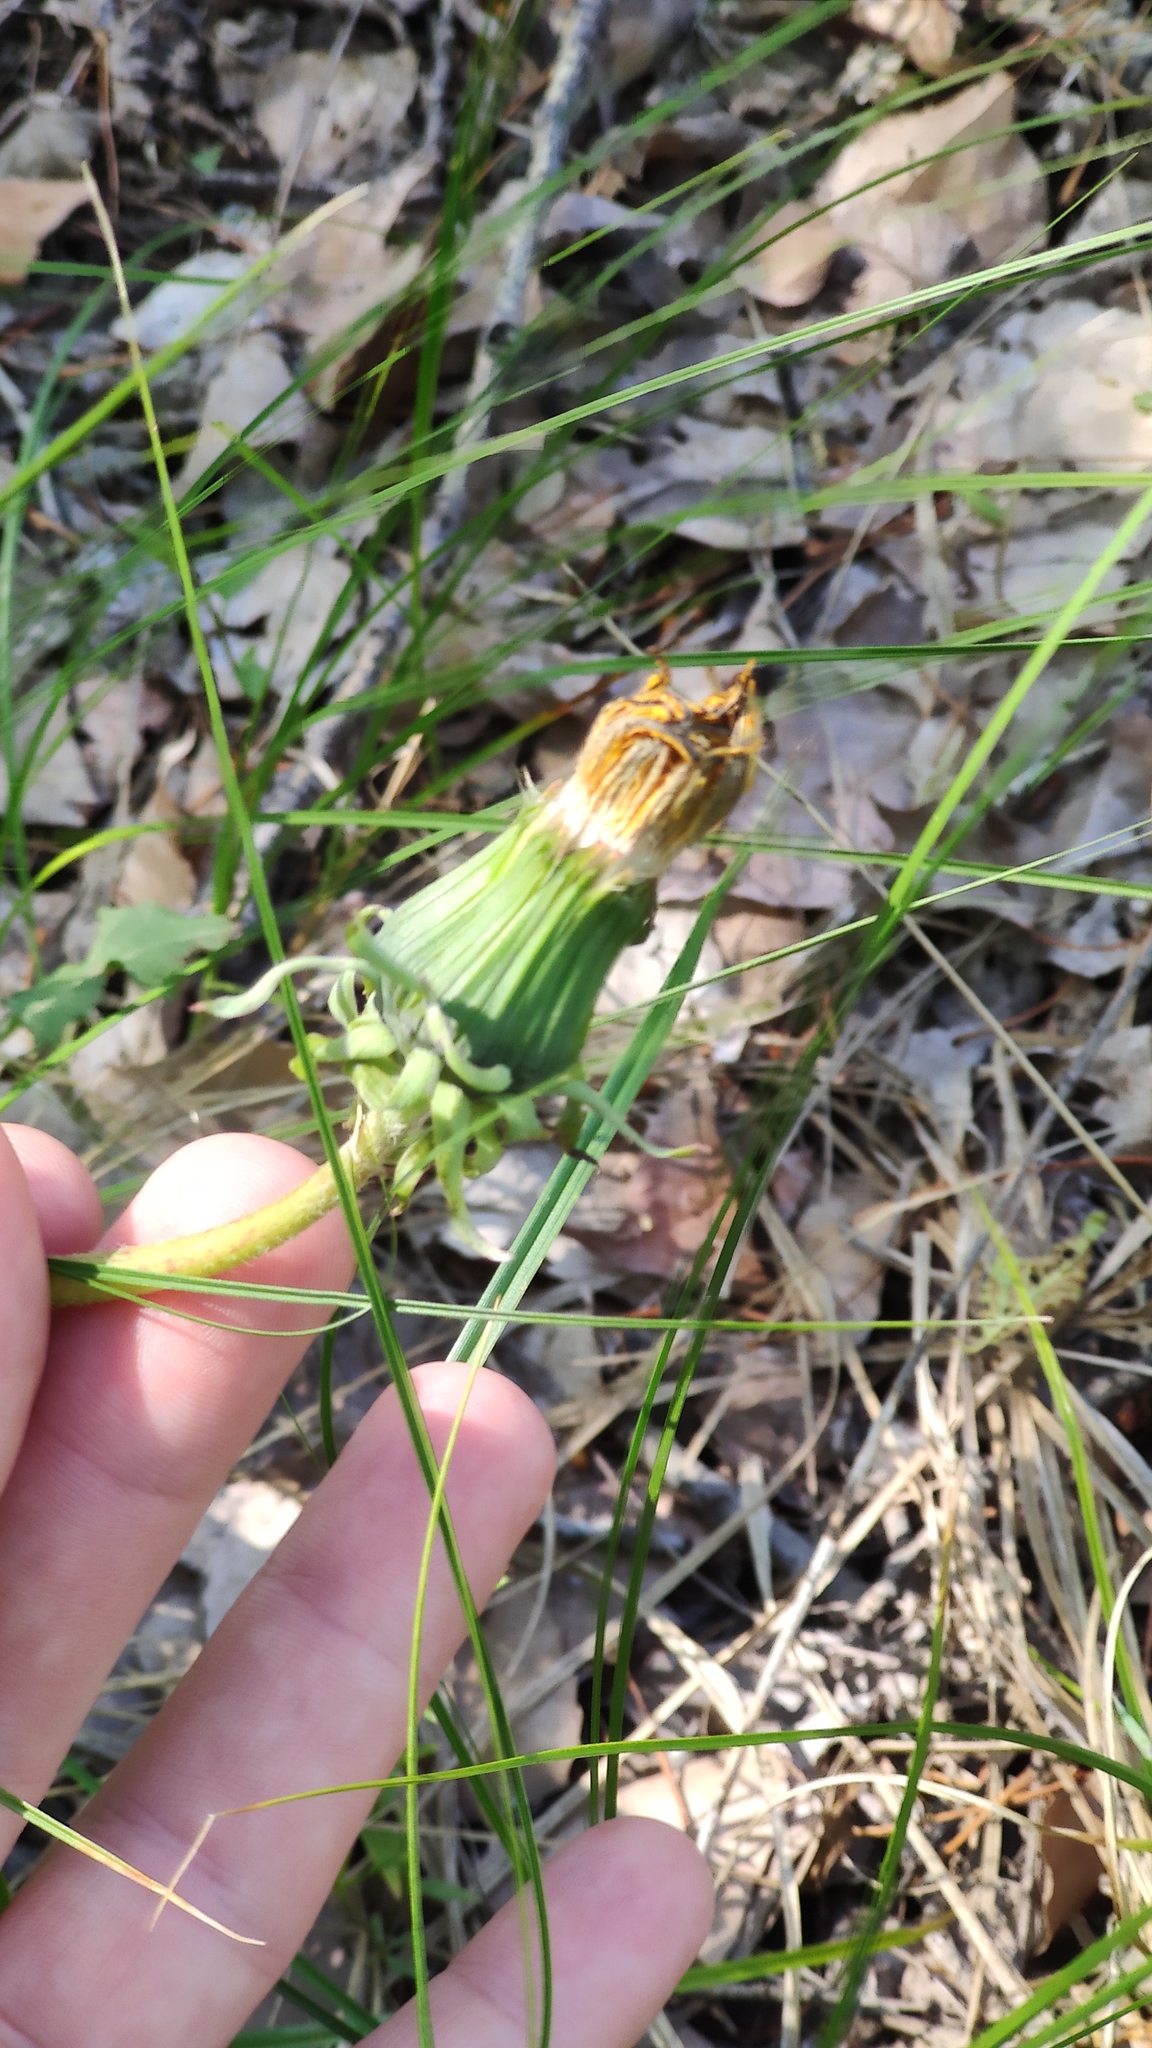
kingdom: Plantae
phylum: Tracheophyta
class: Magnoliopsida
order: Asterales
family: Asteraceae
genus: Taraxacum
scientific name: Taraxacum officinale
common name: Common dandelion
